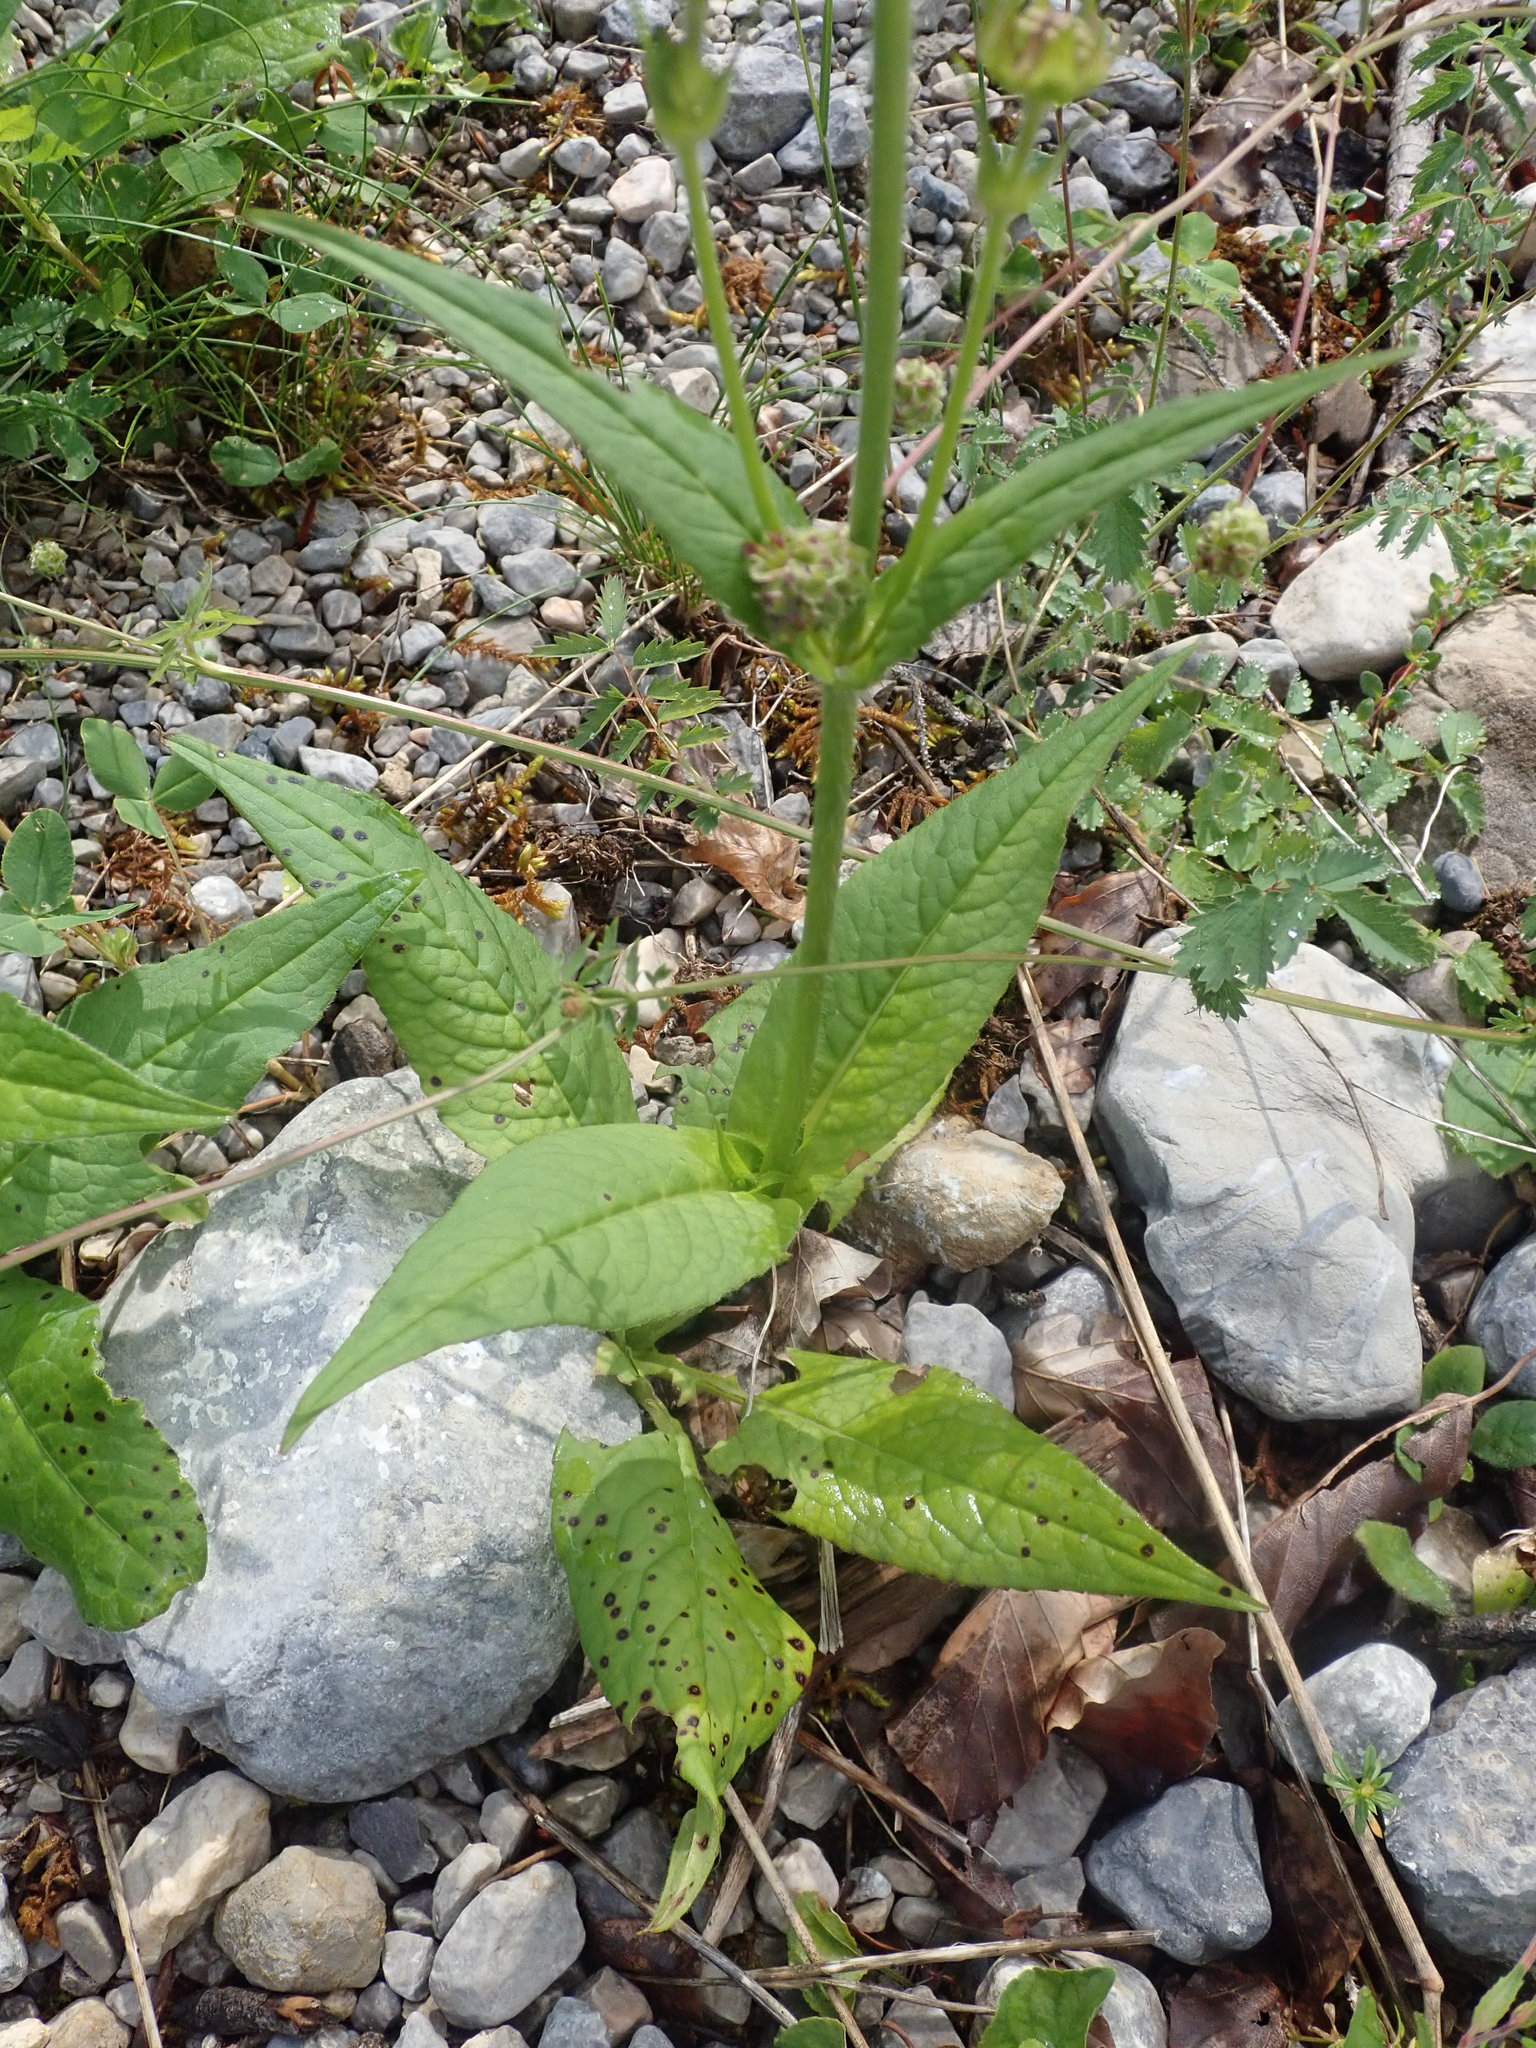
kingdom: Plantae
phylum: Tracheophyta
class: Magnoliopsida
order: Dipsacales
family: Caprifoliaceae
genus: Knautia
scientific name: Knautia dipsacifolia
